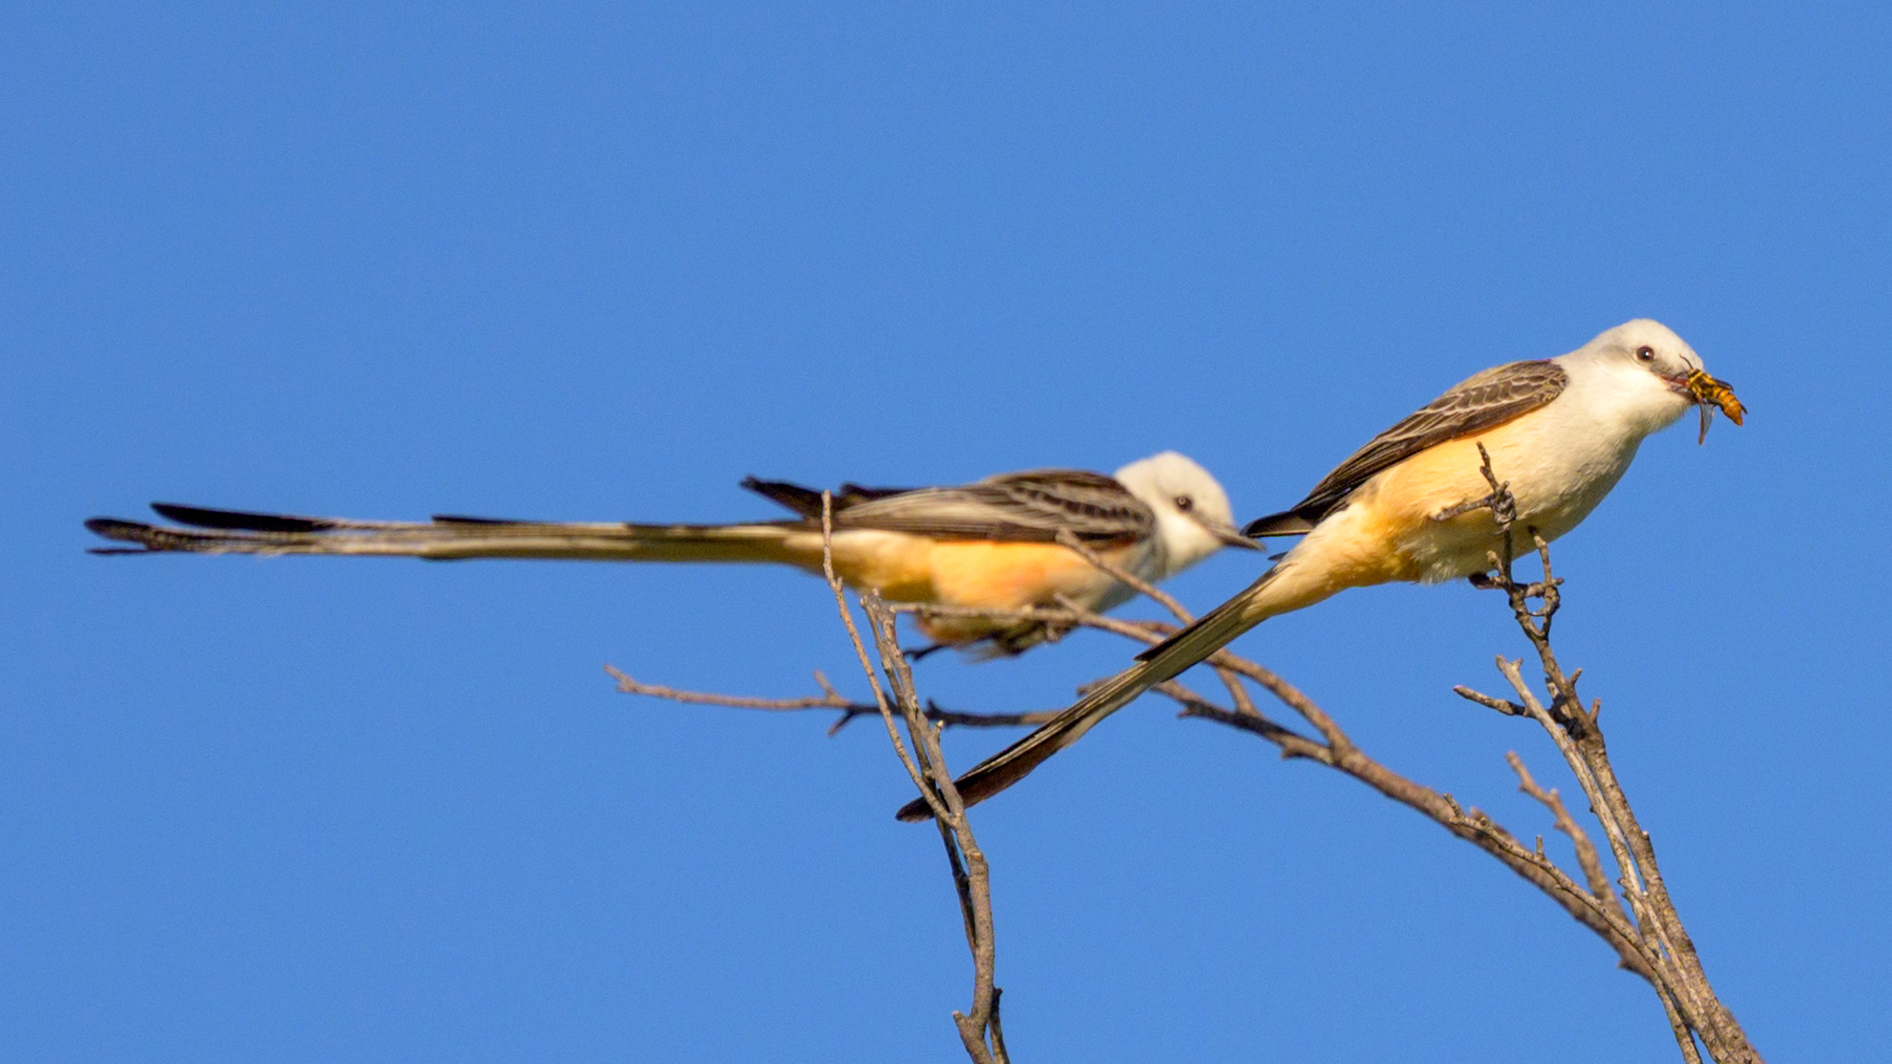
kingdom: Animalia
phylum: Chordata
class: Aves
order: Passeriformes
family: Tyrannidae
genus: Tyrannus
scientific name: Tyrannus forficatus
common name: Scissor-tailed flycatcher
